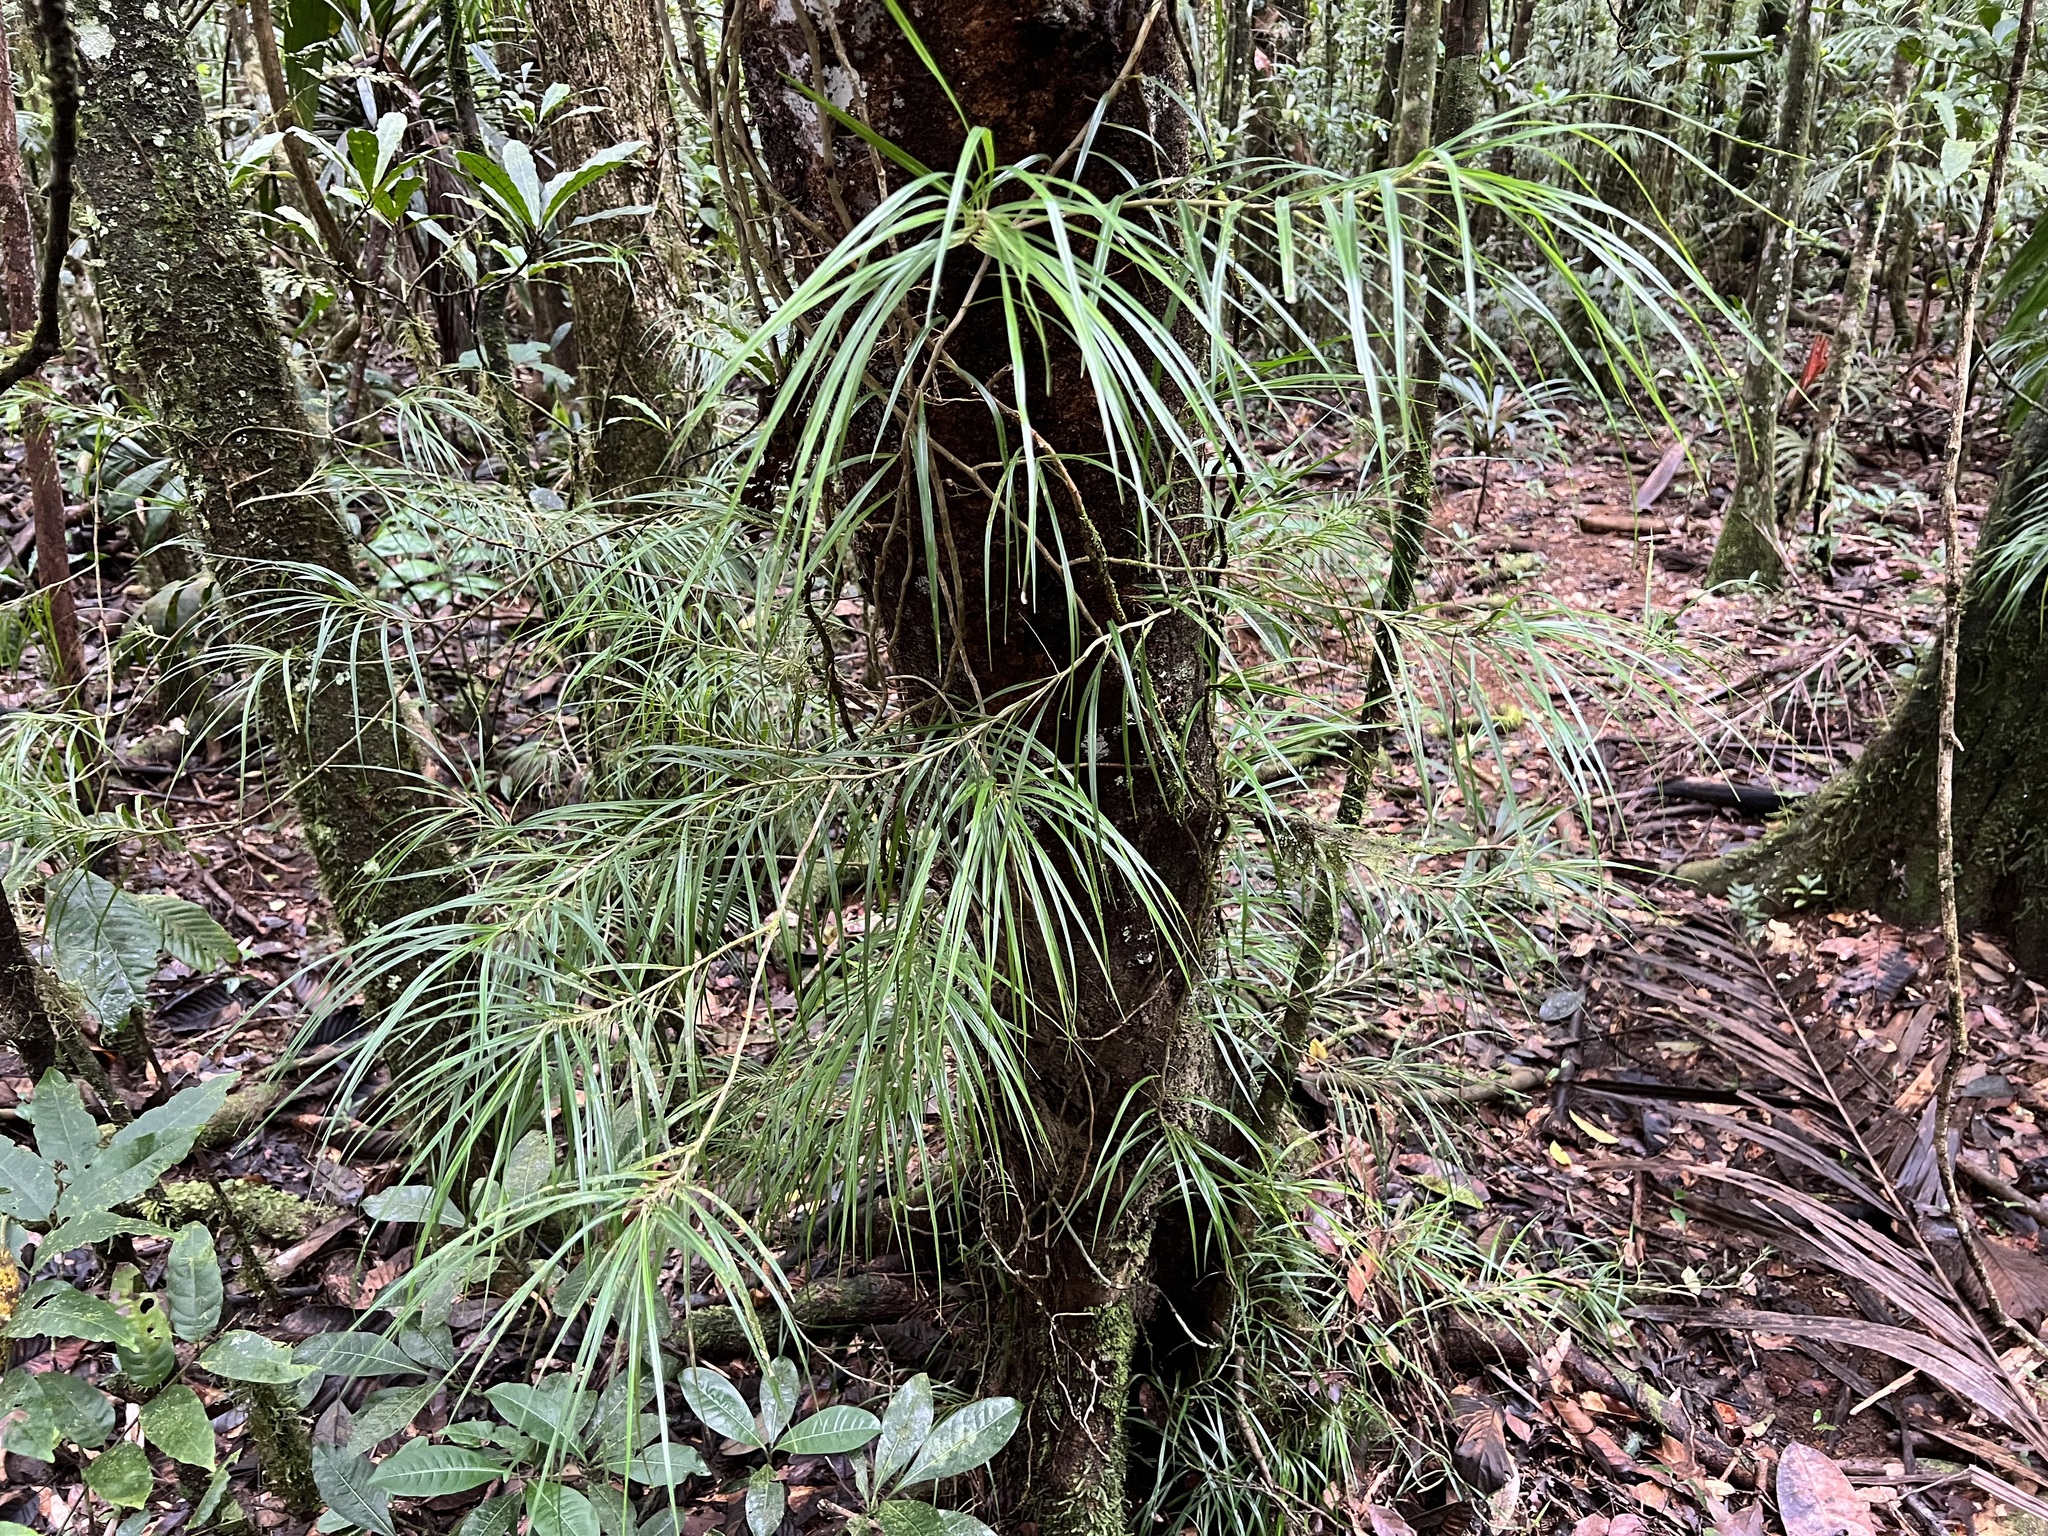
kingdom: Plantae
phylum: Tracheophyta
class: Liliopsida
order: Pandanales
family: Pandanaceae
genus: Freycinetia
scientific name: Freycinetia graminifolia
